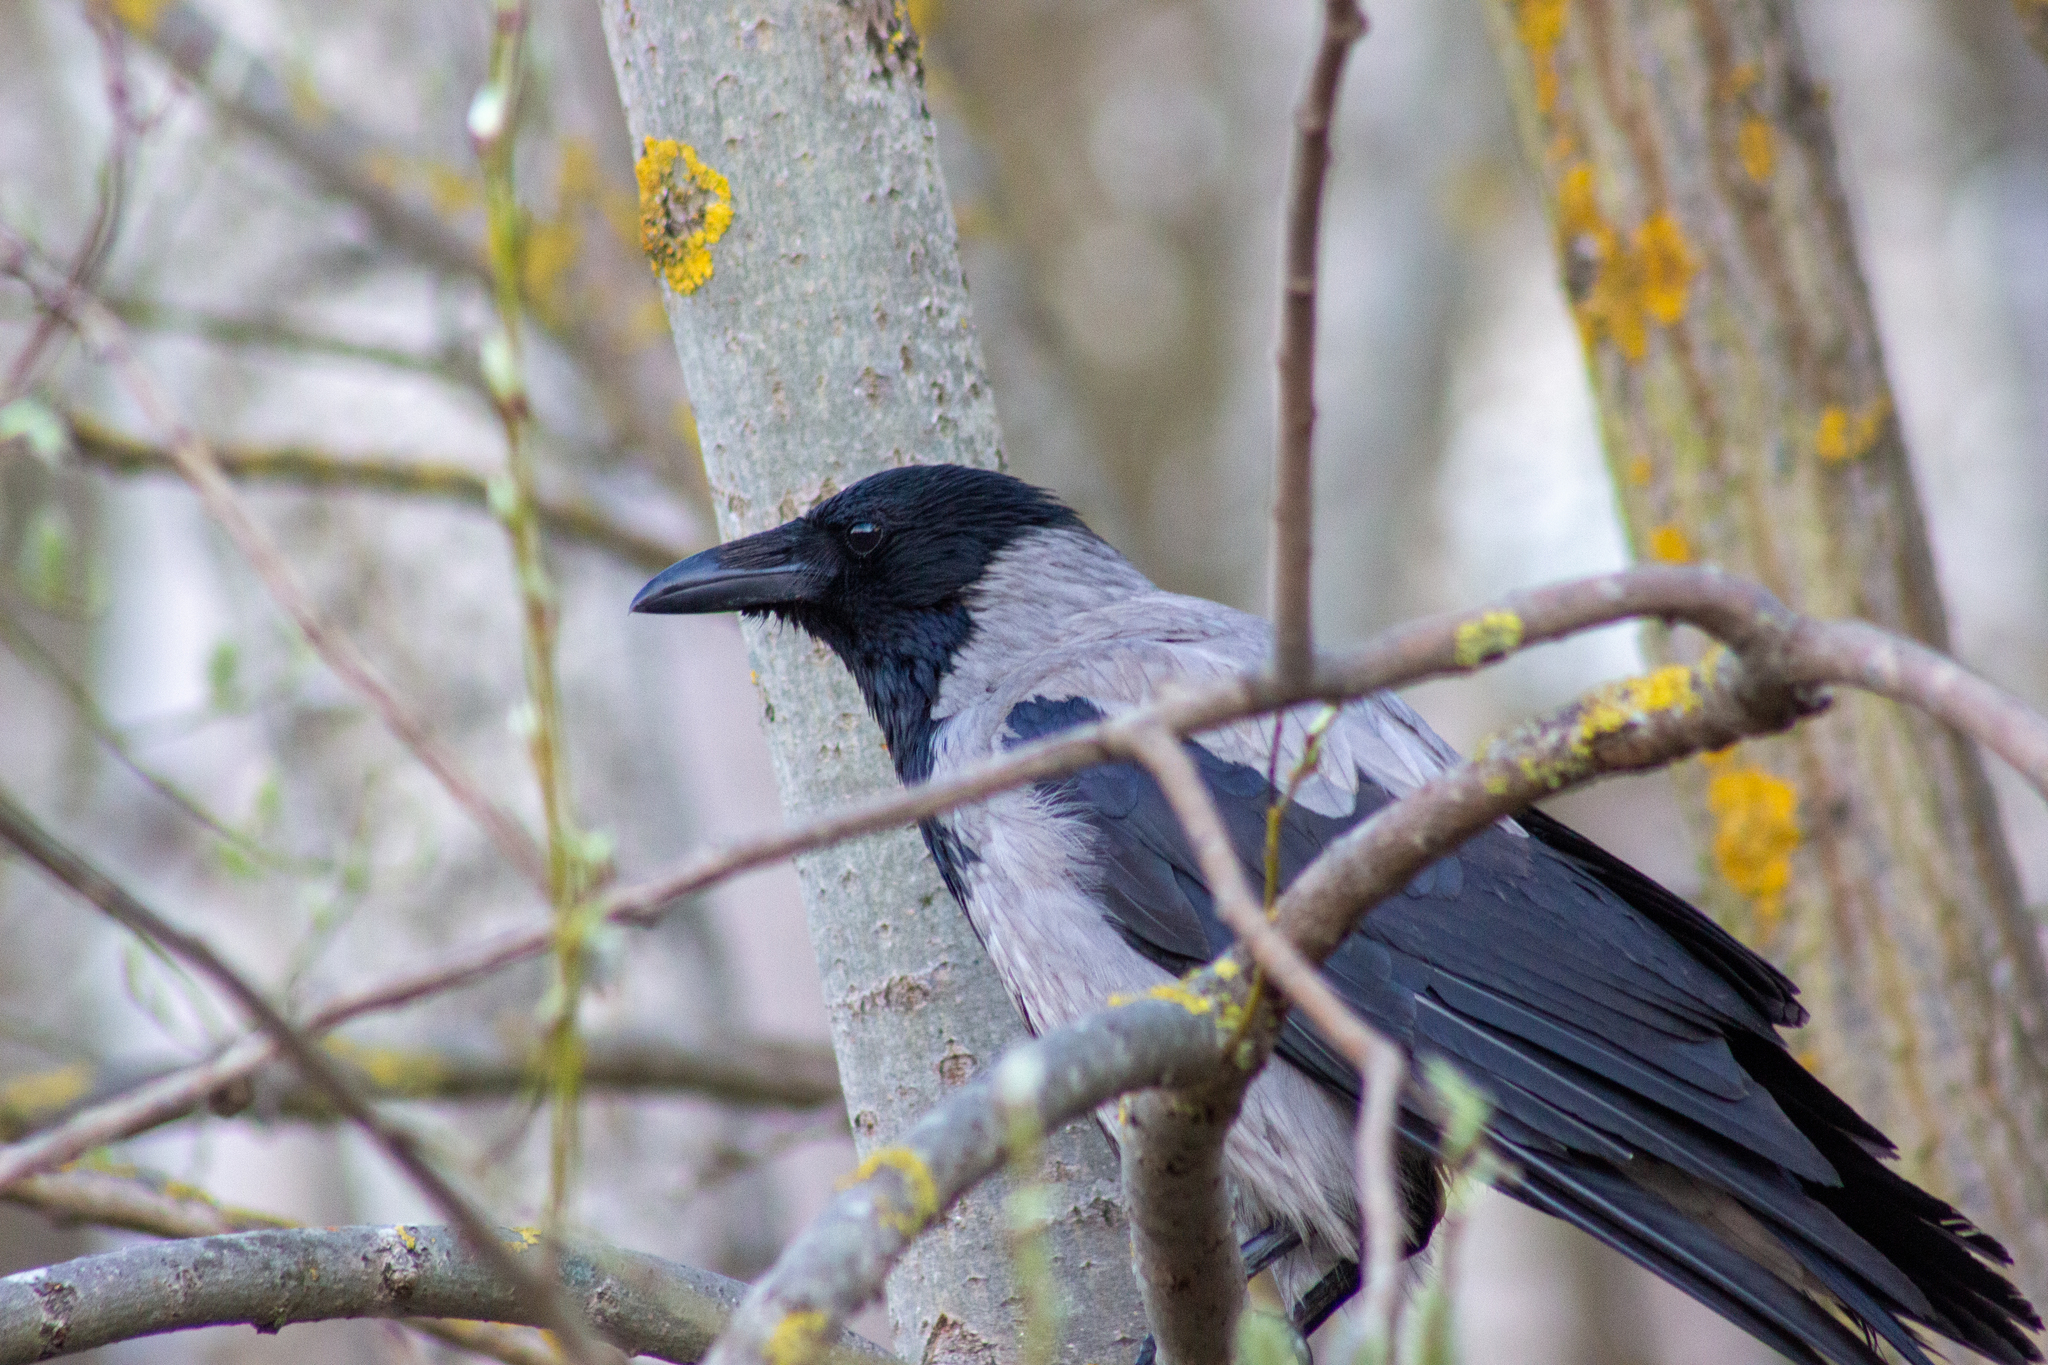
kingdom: Animalia
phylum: Chordata
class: Aves
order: Passeriformes
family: Corvidae
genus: Corvus
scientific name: Corvus cornix
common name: Hooded crow
